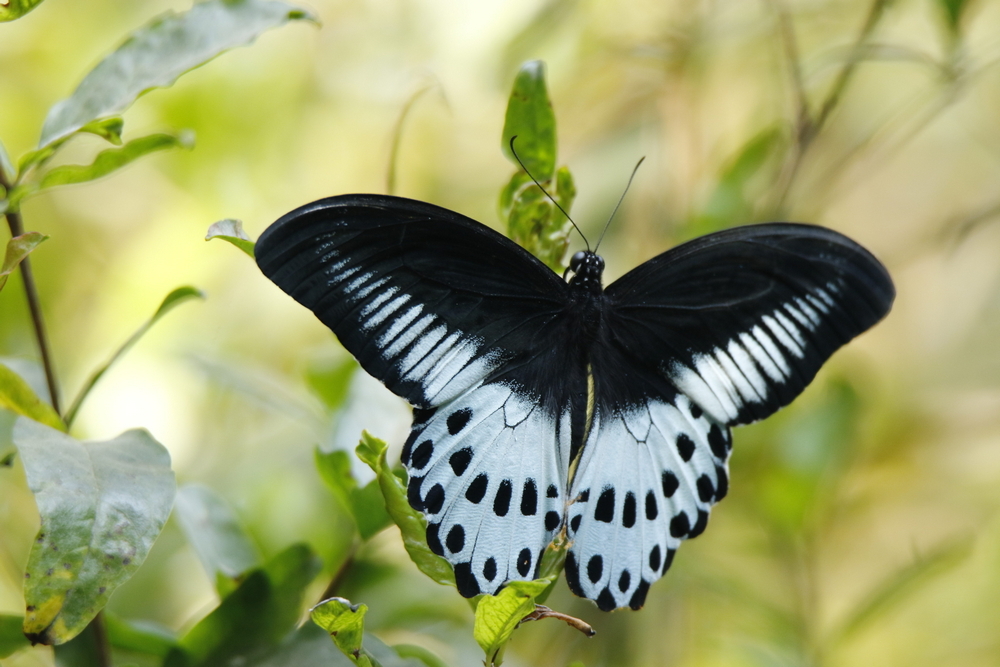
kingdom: Animalia
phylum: Arthropoda
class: Insecta
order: Lepidoptera
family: Papilionidae
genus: Papilio
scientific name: Papilio memnon
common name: Great mormon
